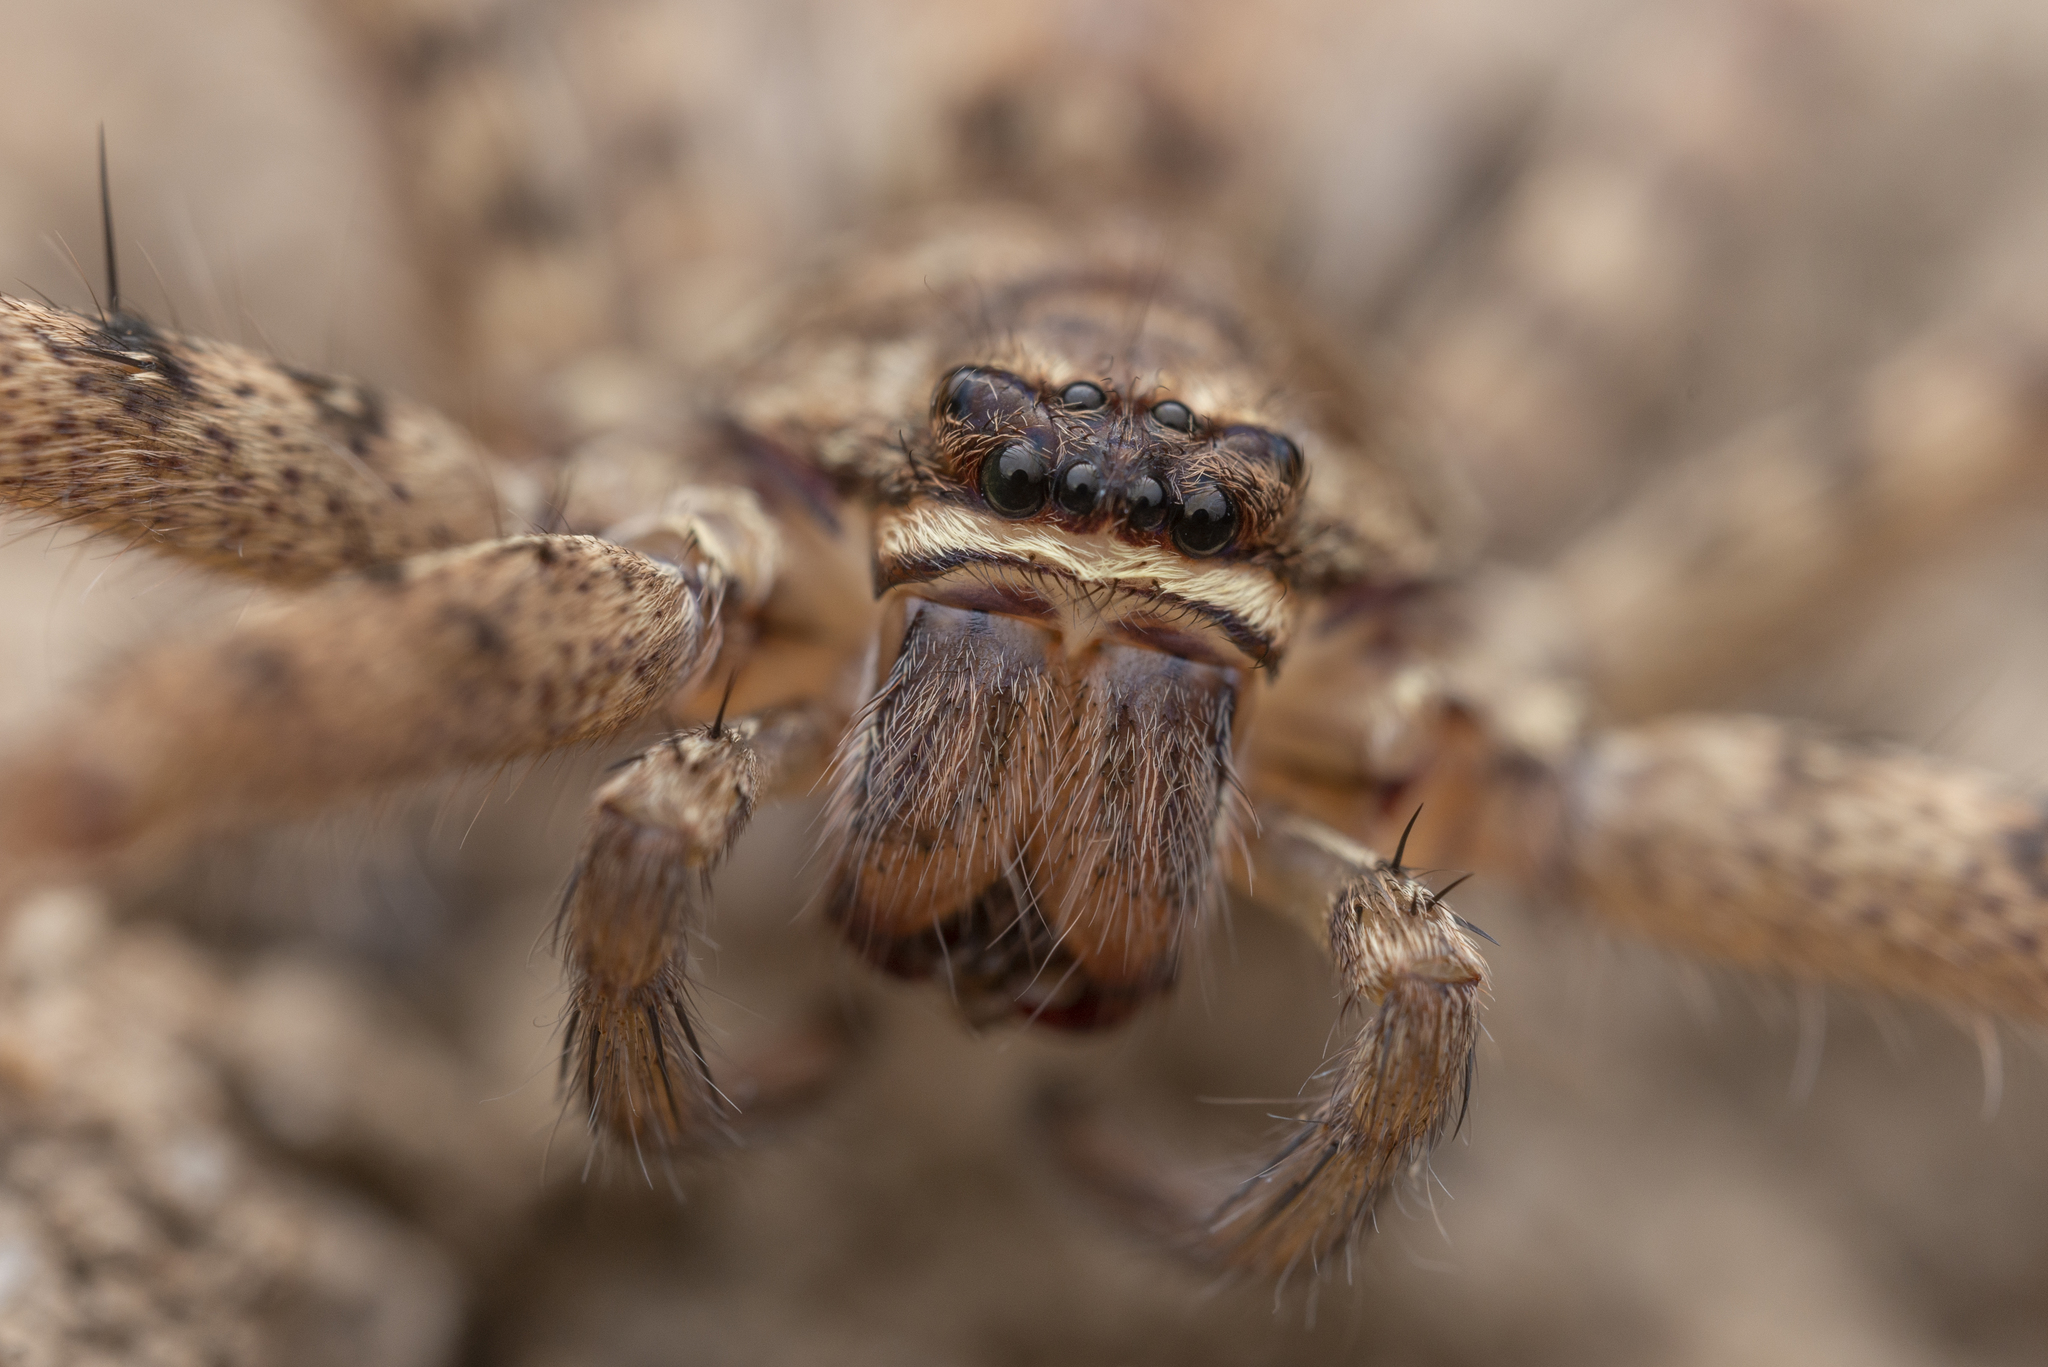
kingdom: Animalia
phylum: Arthropoda
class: Arachnida
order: Araneae
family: Sparassidae
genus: Heteropoda
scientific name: Heteropoda venatoria
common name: Huntsman spider
